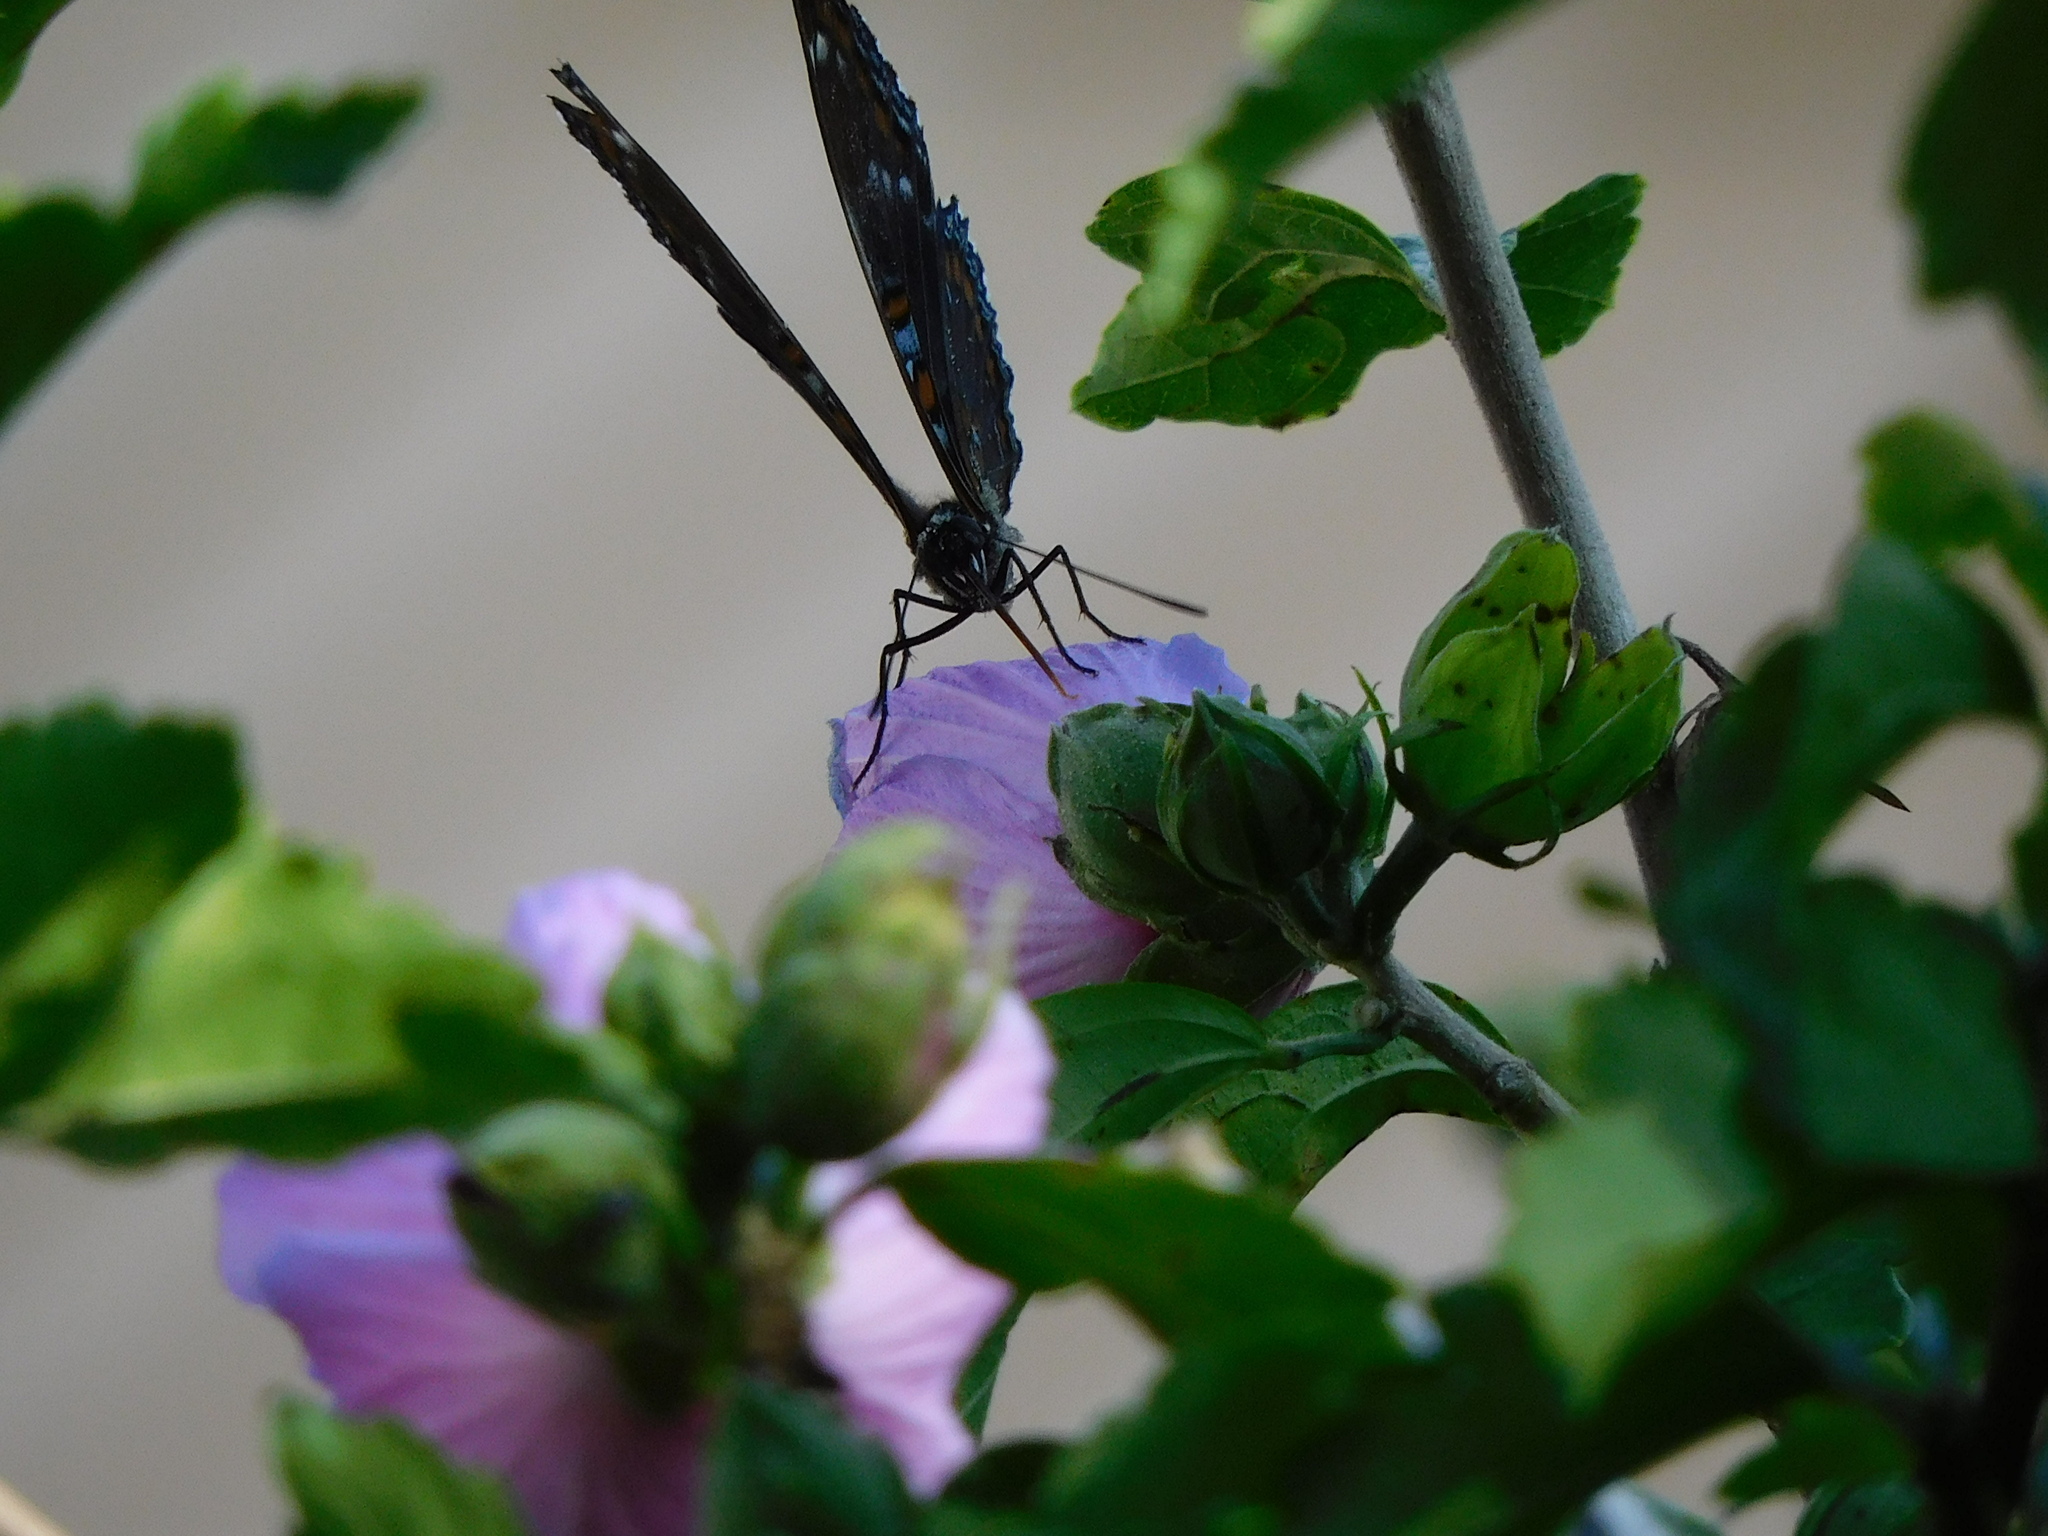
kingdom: Animalia
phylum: Arthropoda
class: Insecta
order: Lepidoptera
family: Nymphalidae
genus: Limenitis
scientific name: Limenitis arthemis
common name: Red-spotted admiral
